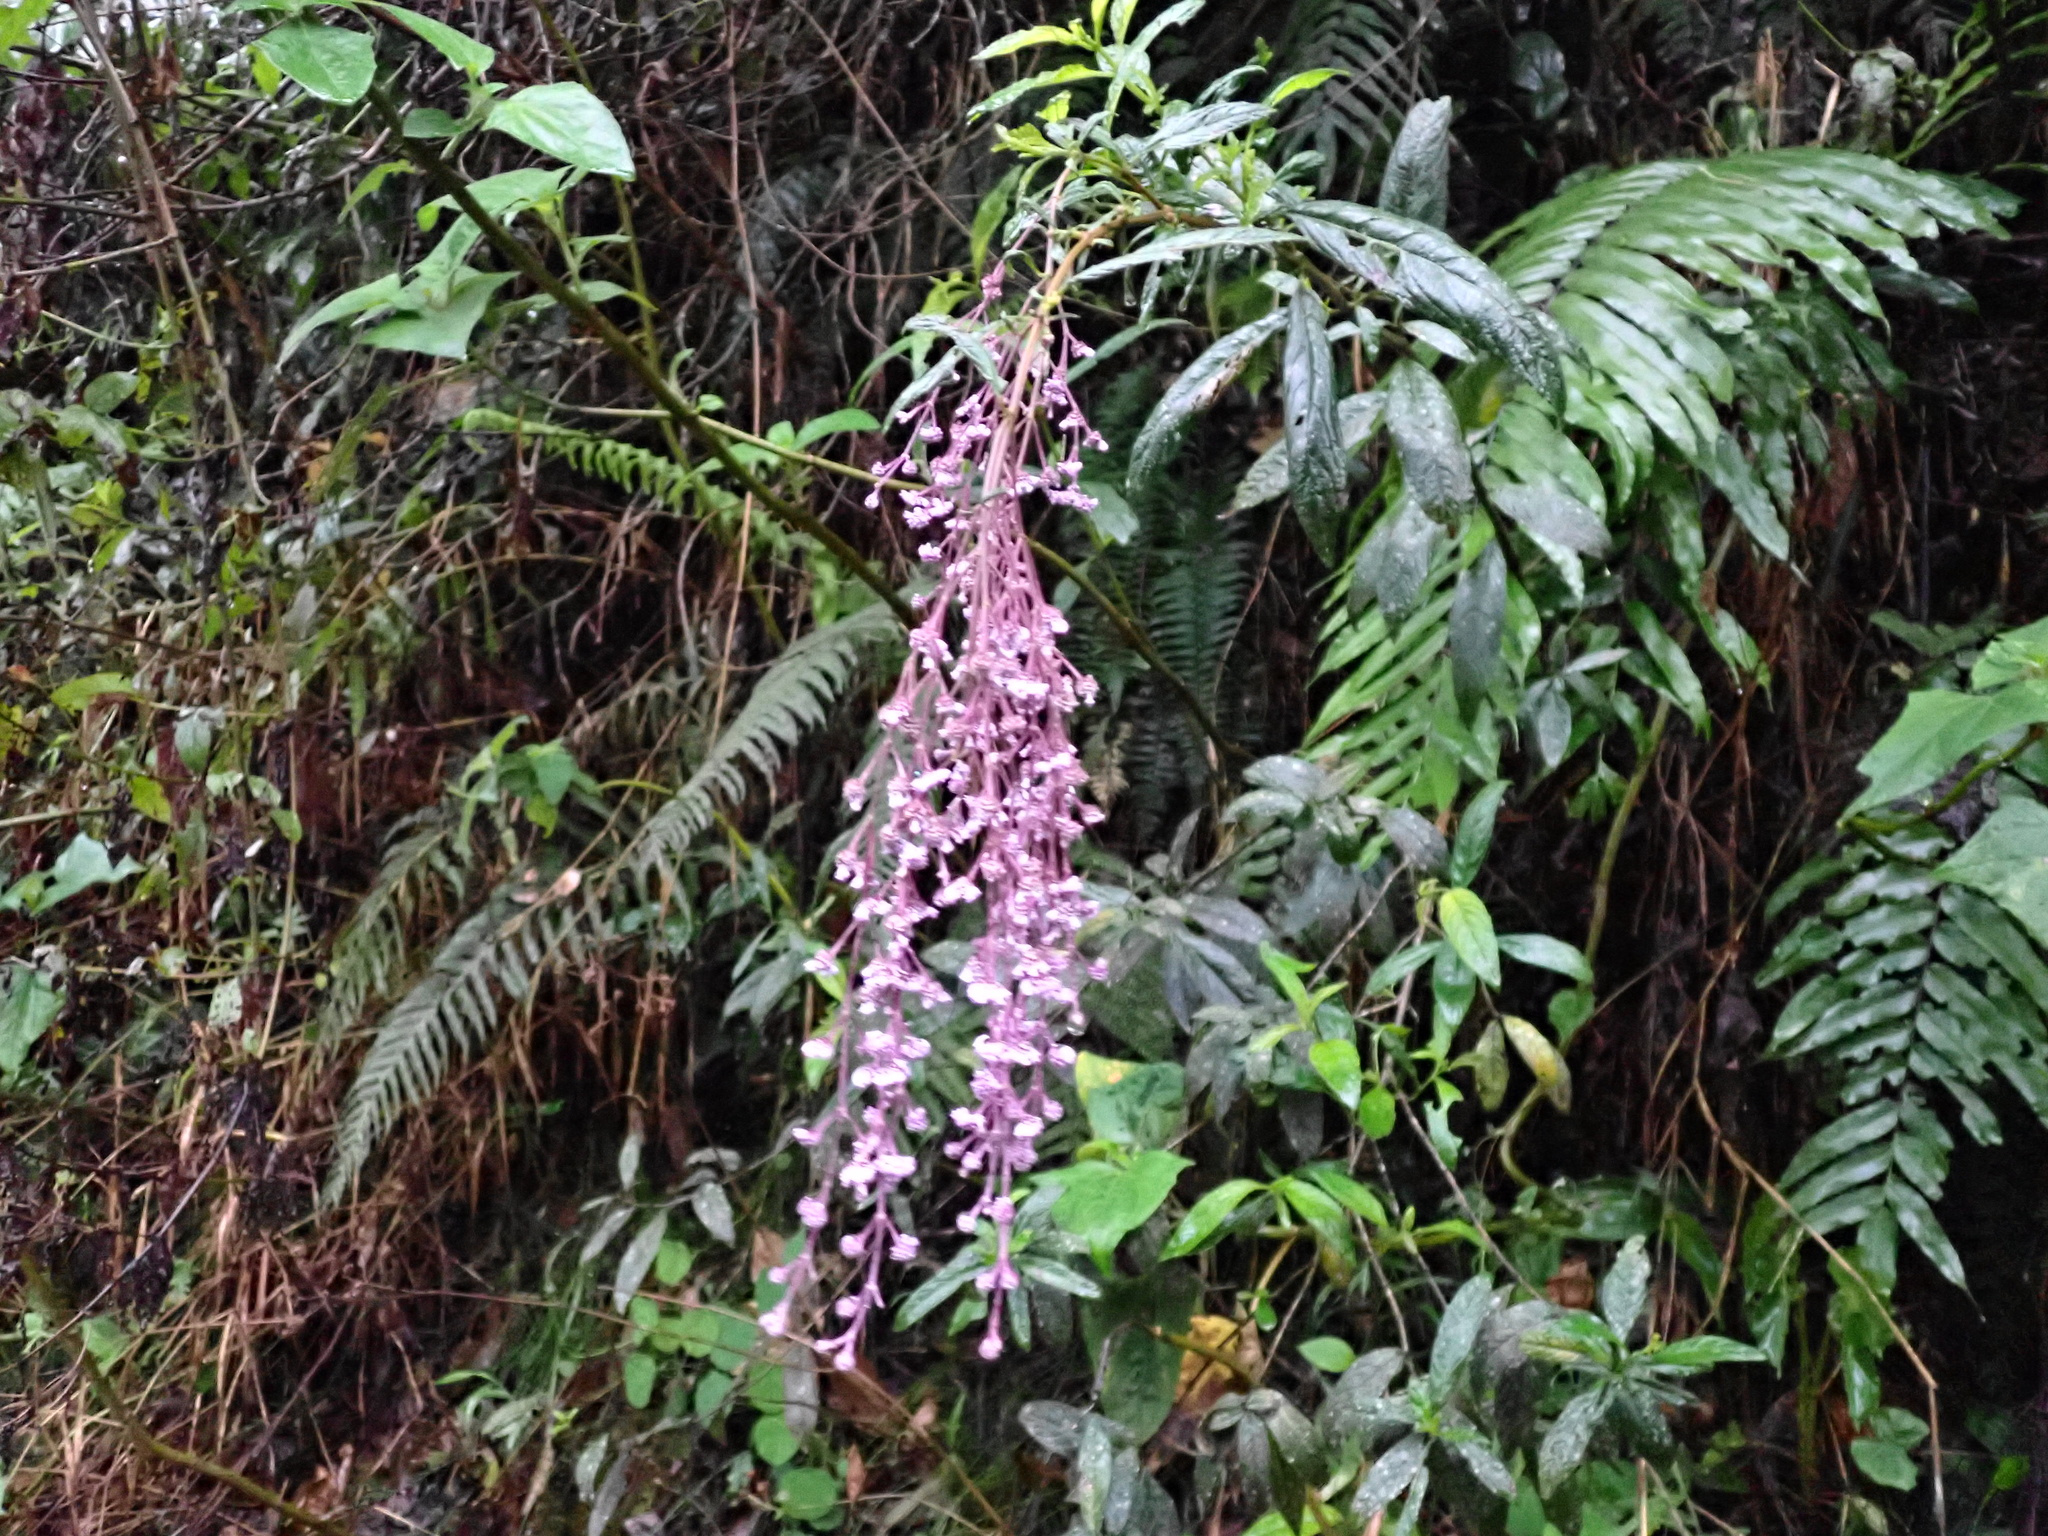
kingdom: Plantae
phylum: Tracheophyta
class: Magnoliopsida
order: Lamiales
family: Lamiaceae
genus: Hyptis
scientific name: Hyptis odorata
